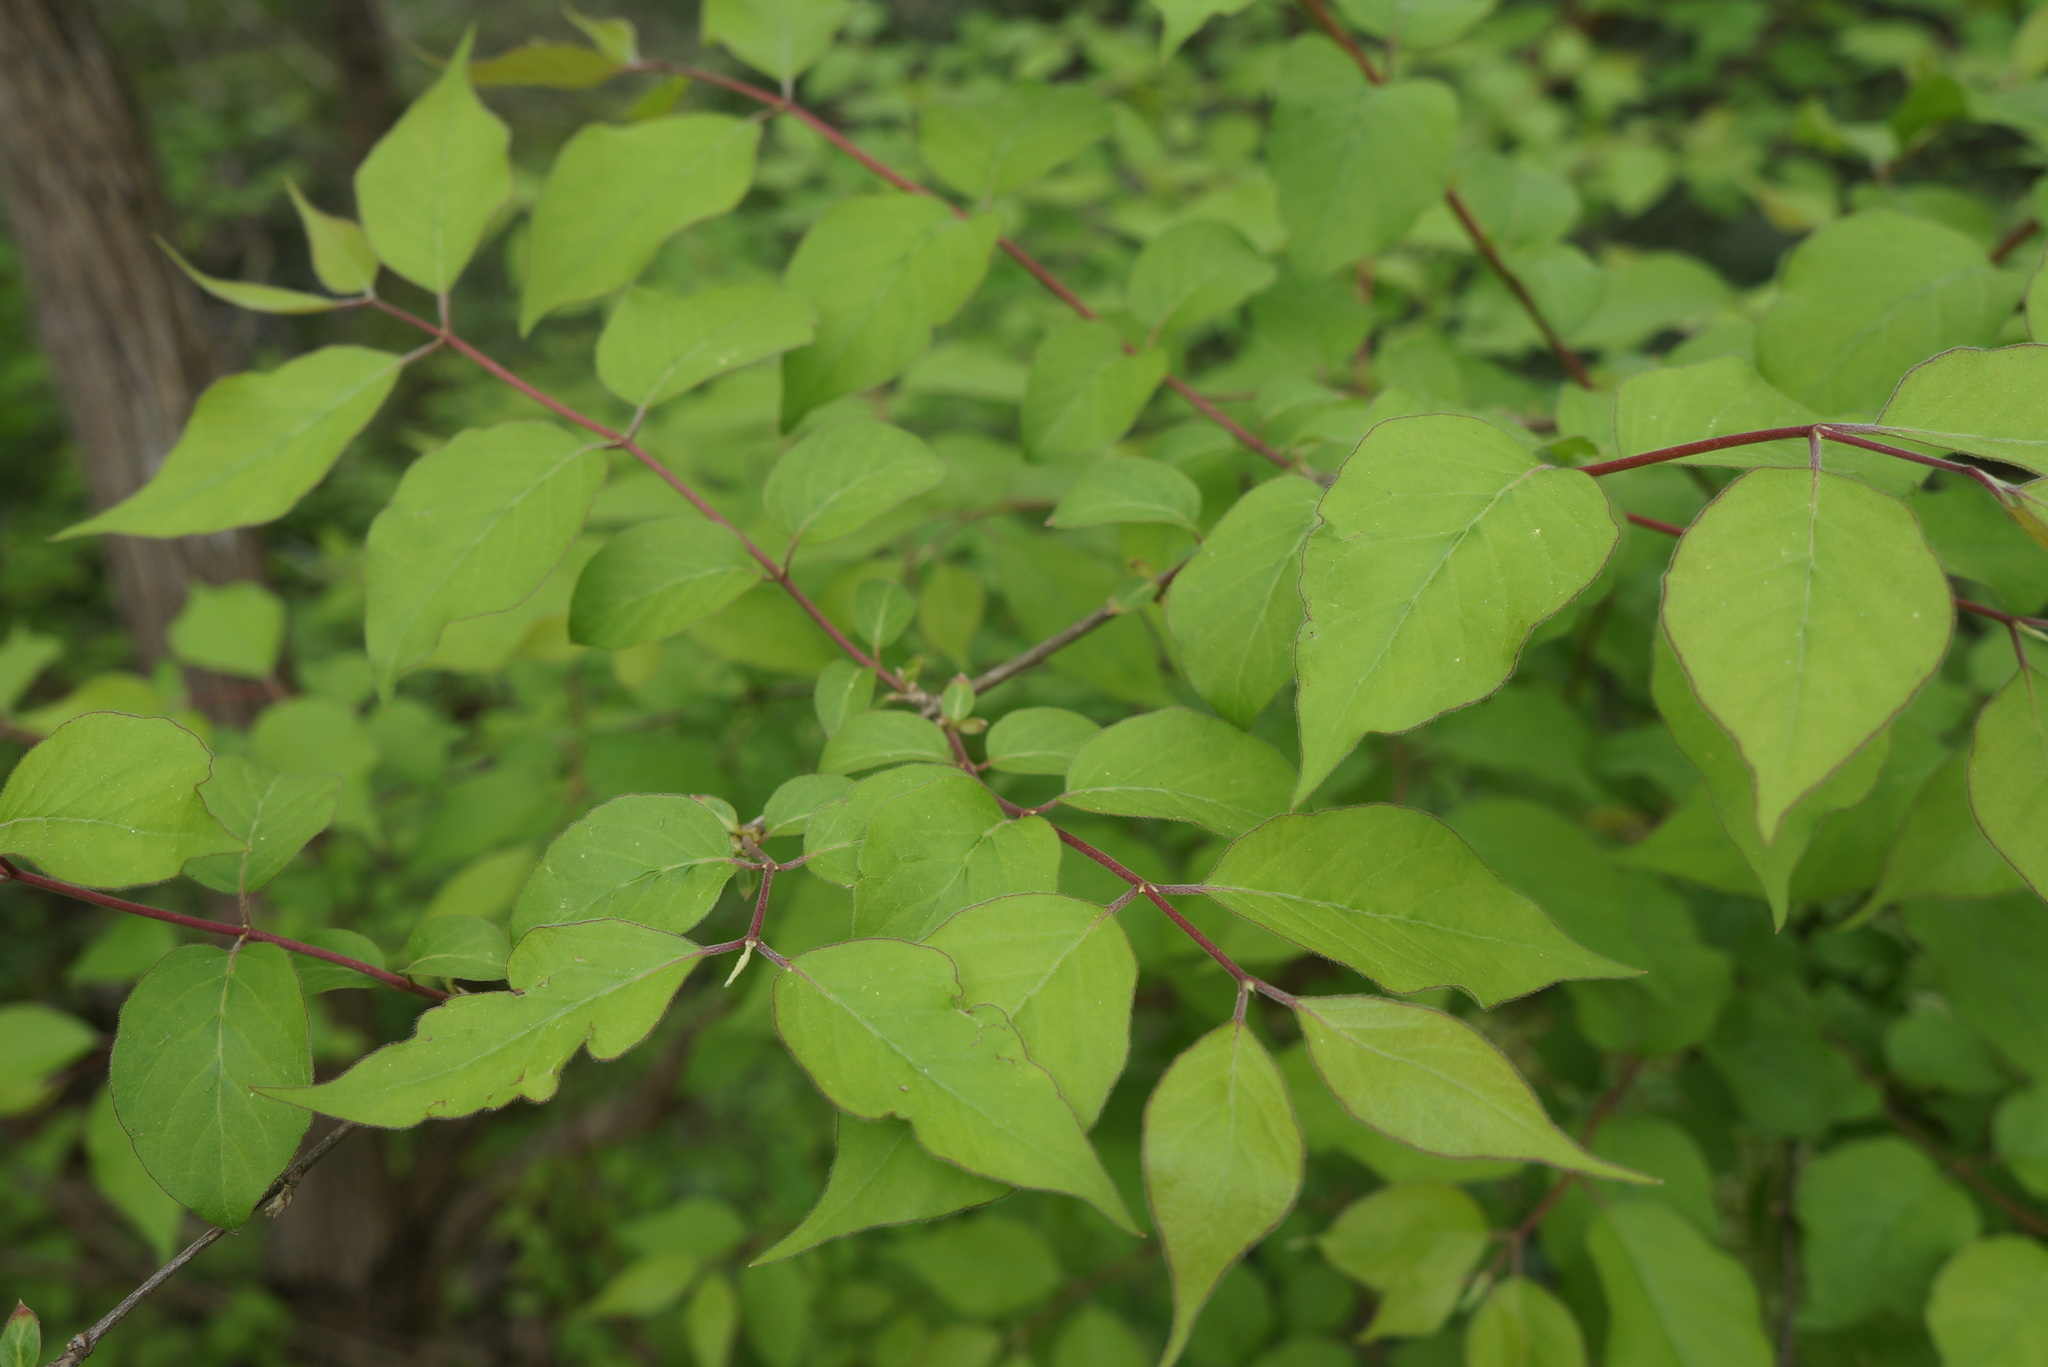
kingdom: Plantae
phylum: Tracheophyta
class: Magnoliopsida
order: Dipsacales
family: Caprifoliaceae
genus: Lonicera
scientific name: Lonicera maackii
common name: Amur honeysuckle
